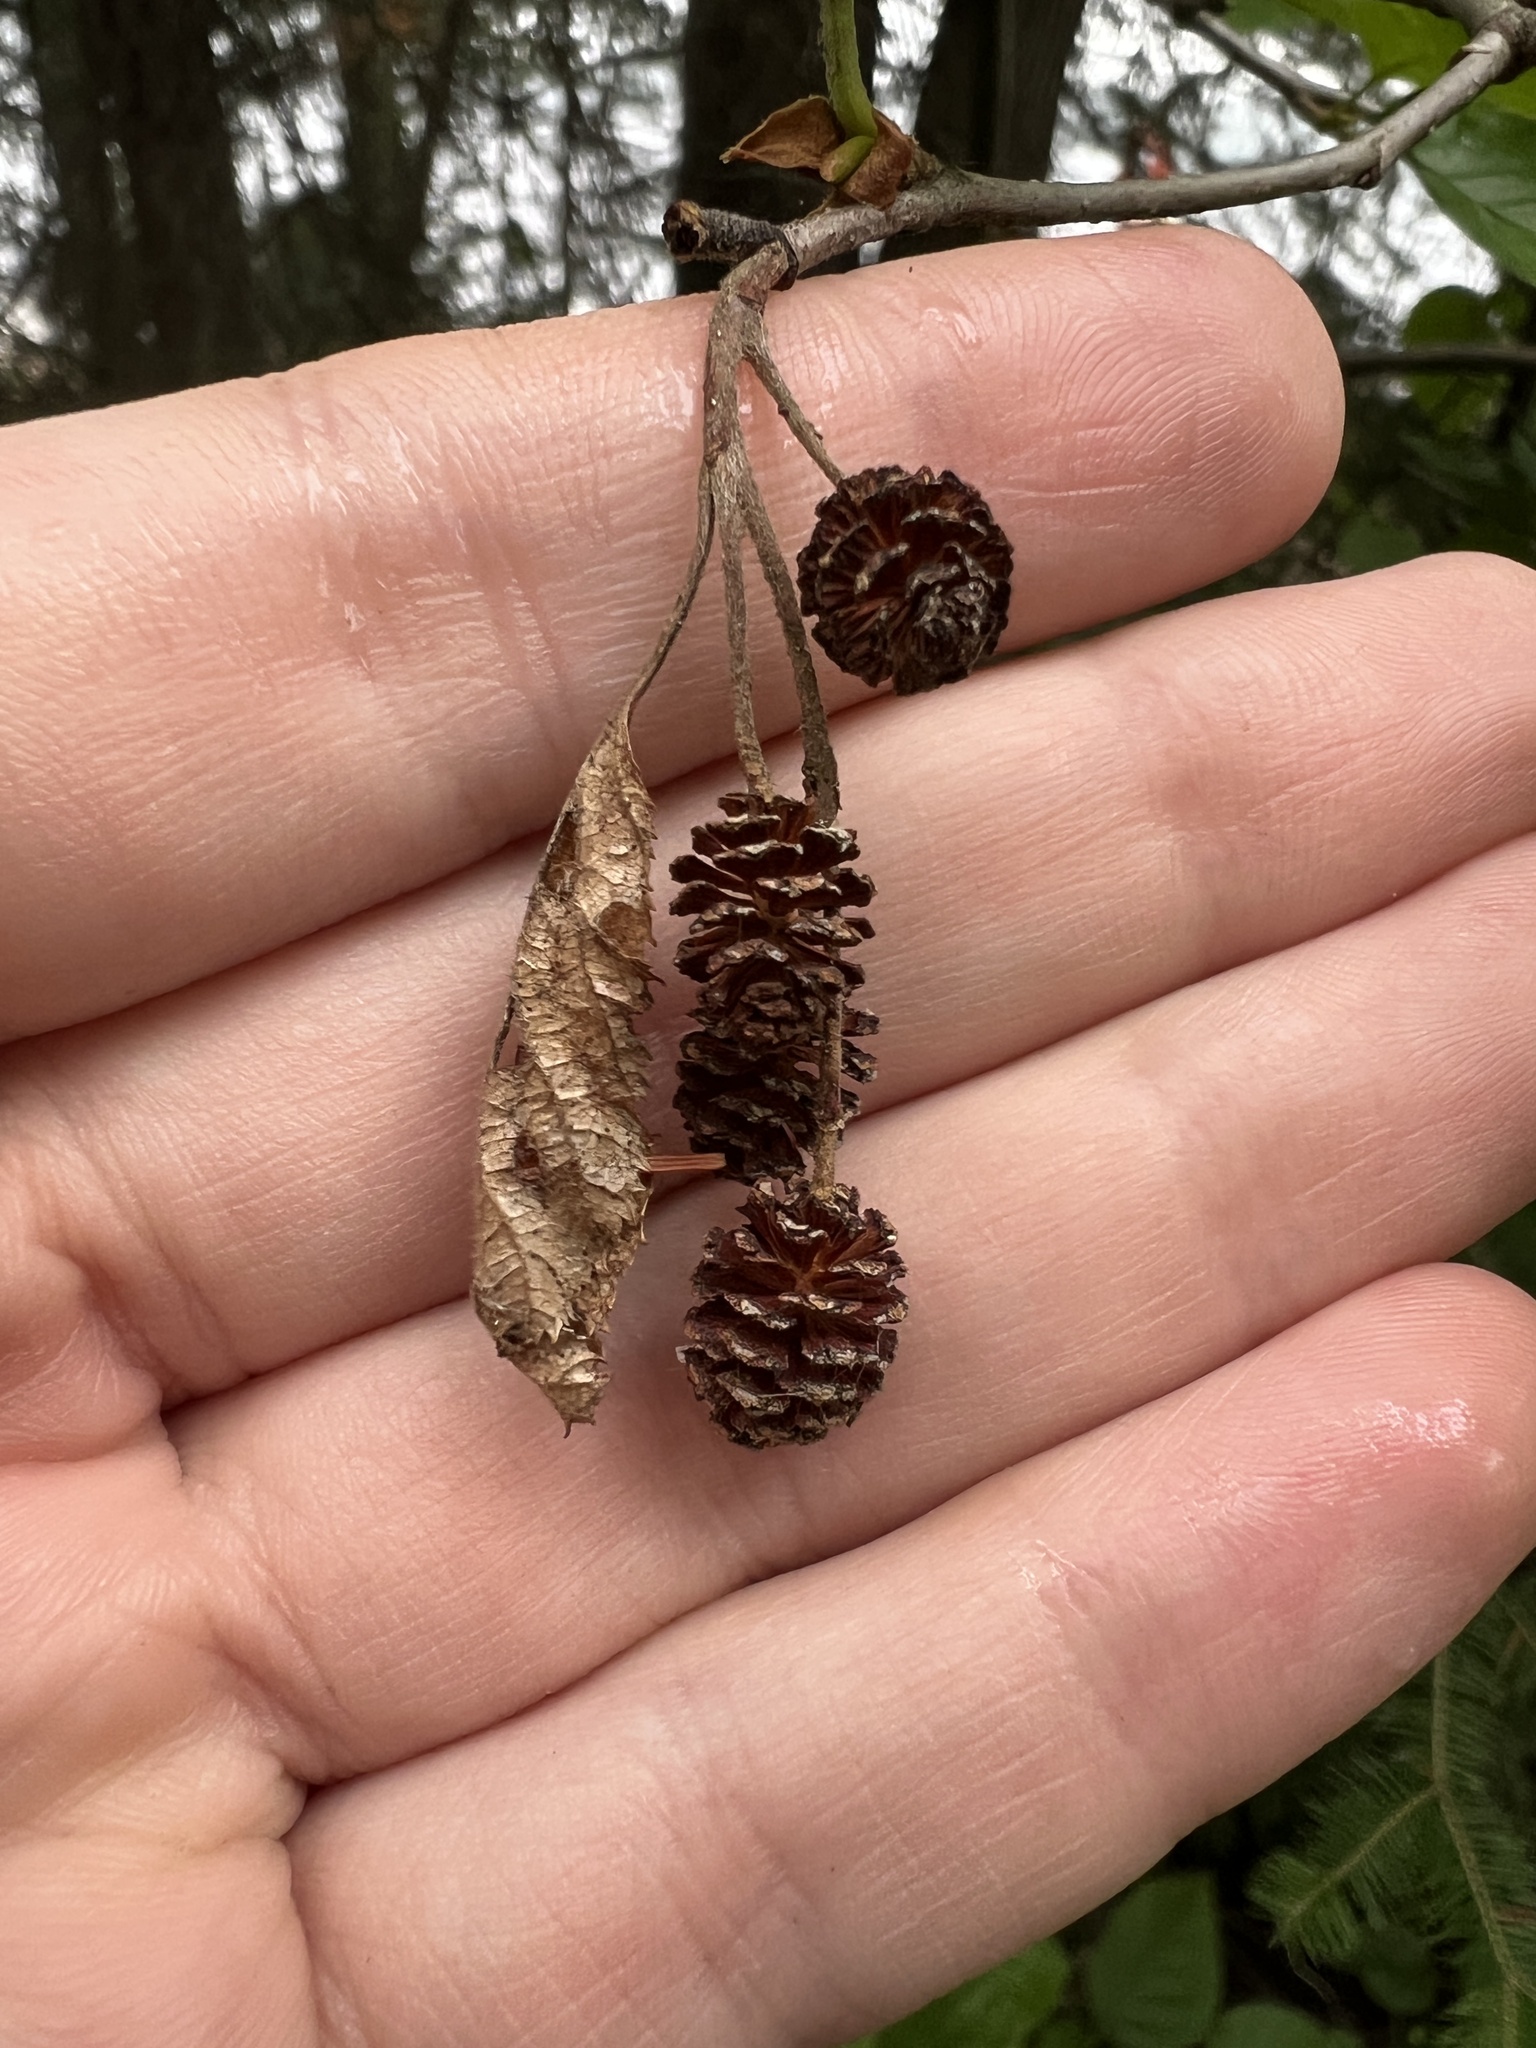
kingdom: Plantae
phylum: Tracheophyta
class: Magnoliopsida
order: Fagales
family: Betulaceae
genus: Alnus
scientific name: Alnus alnobetula
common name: Green alder
